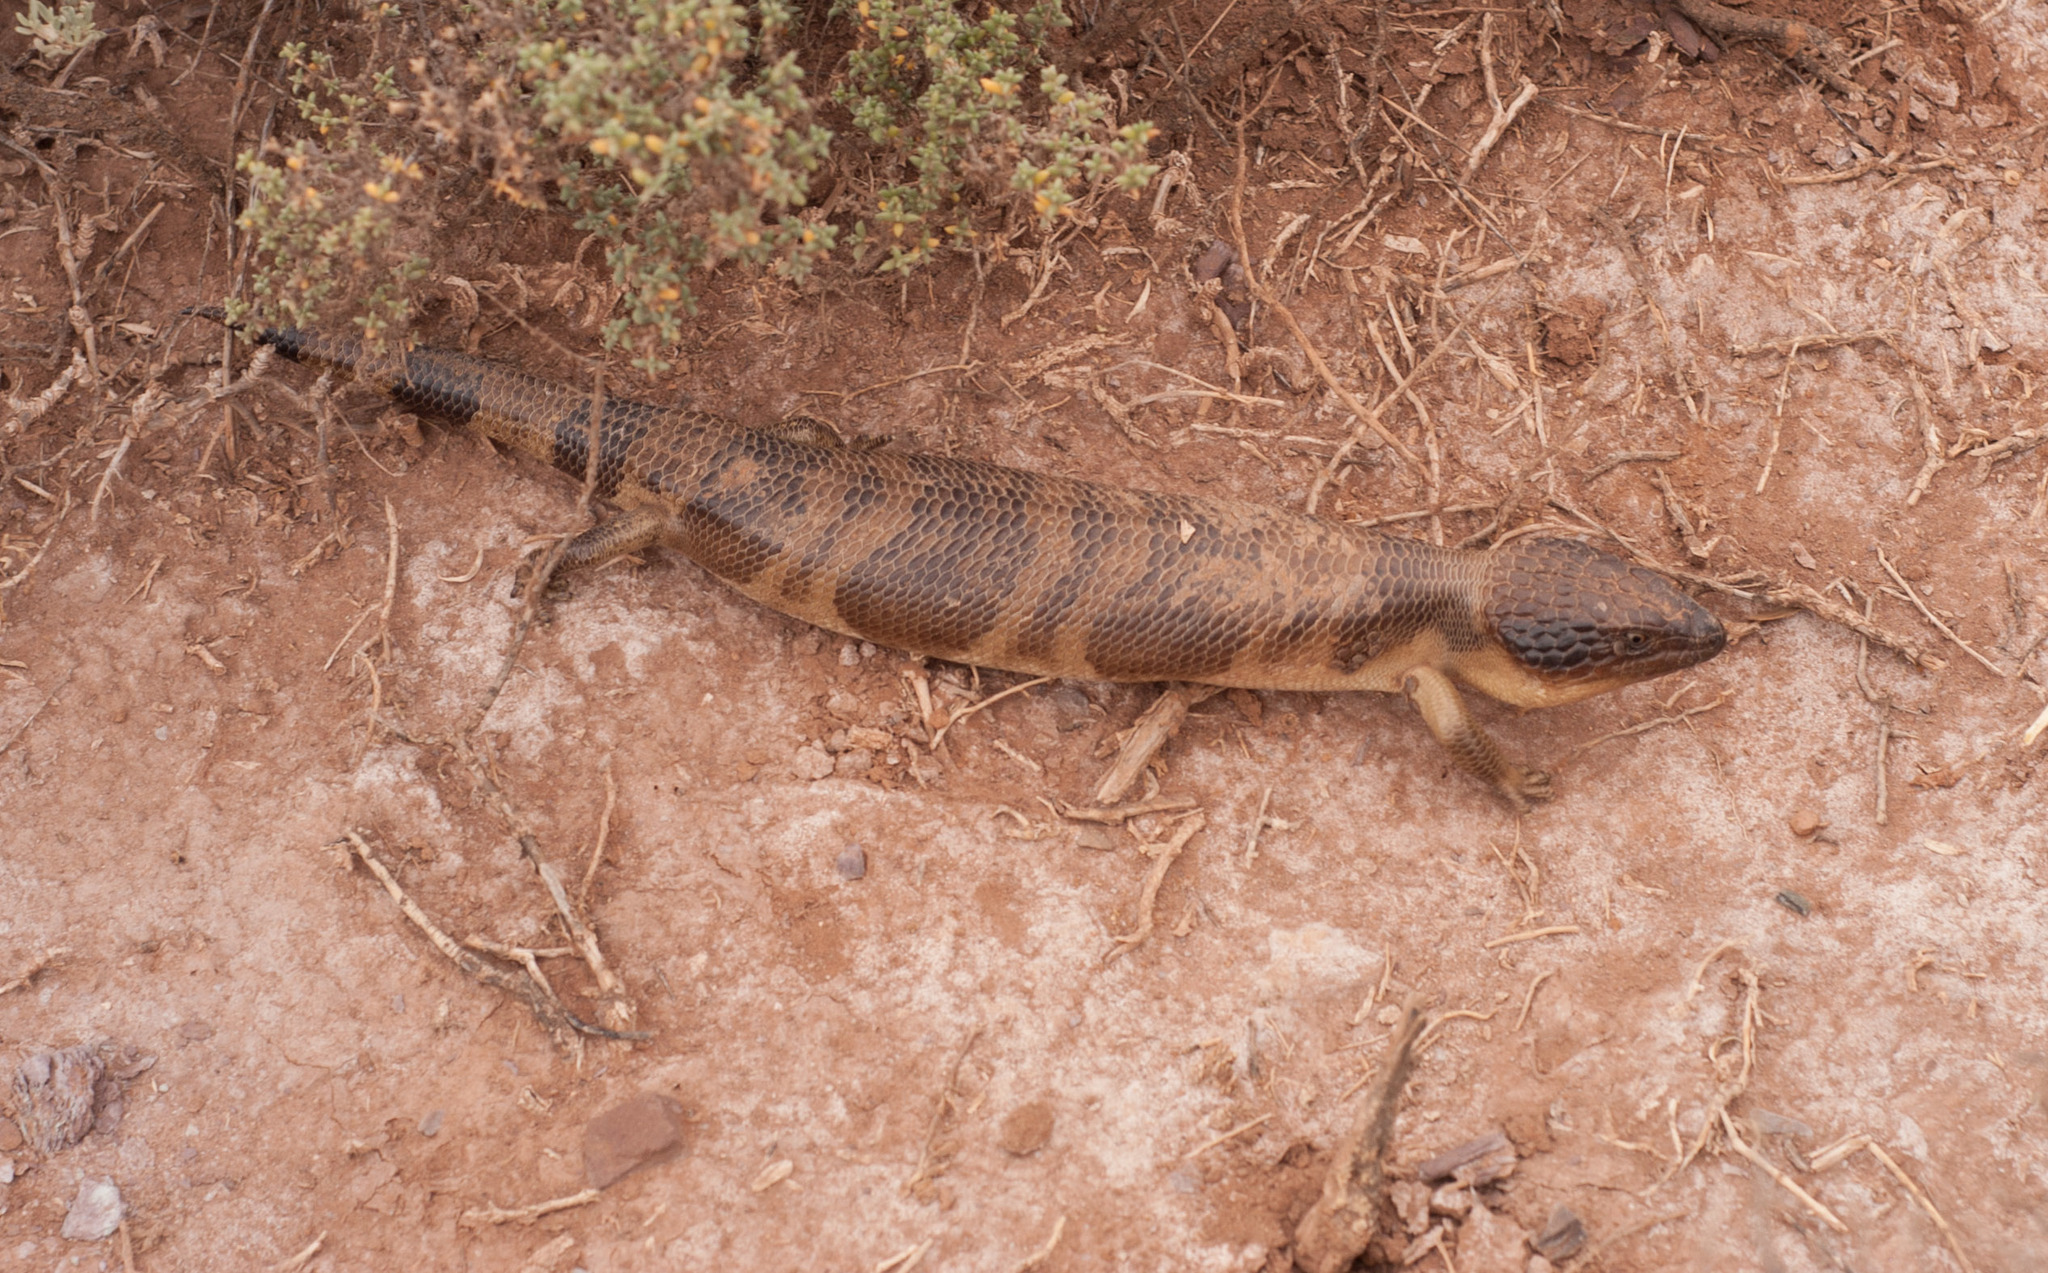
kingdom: Animalia
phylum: Chordata
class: Squamata
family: Scincidae
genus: Tiliqua
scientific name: Tiliqua occipitalis
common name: Western blue-tongued lizard
